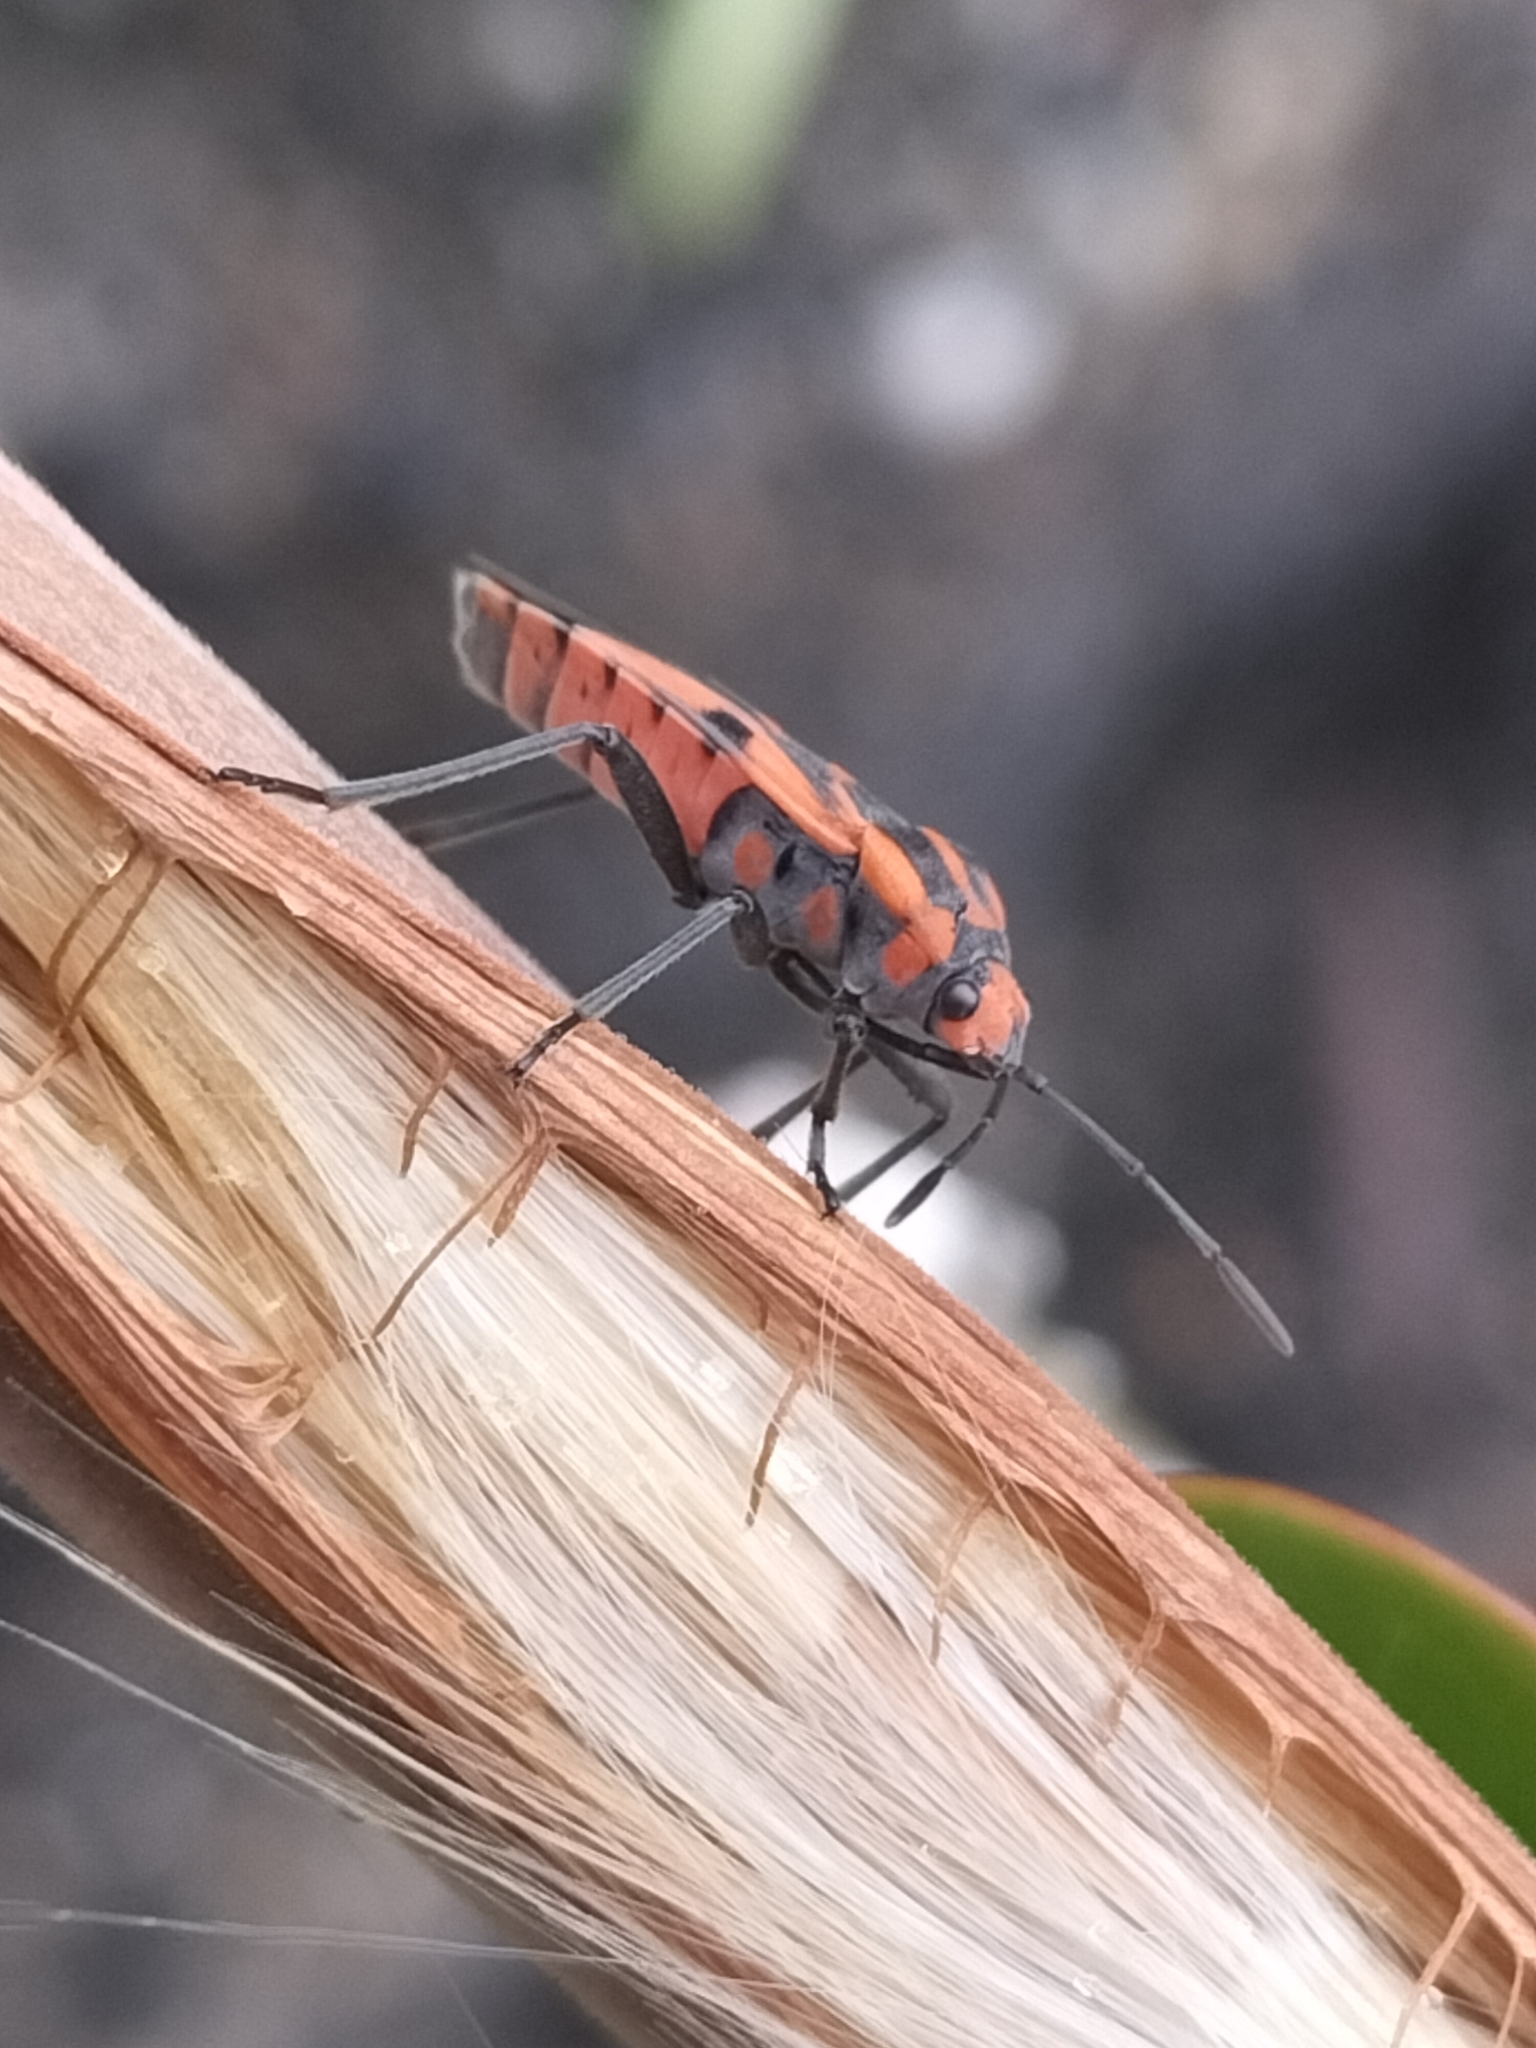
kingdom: Animalia
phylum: Arthropoda
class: Insecta
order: Hemiptera
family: Lygaeidae
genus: Spilostethus
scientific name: Spilostethus hospes
